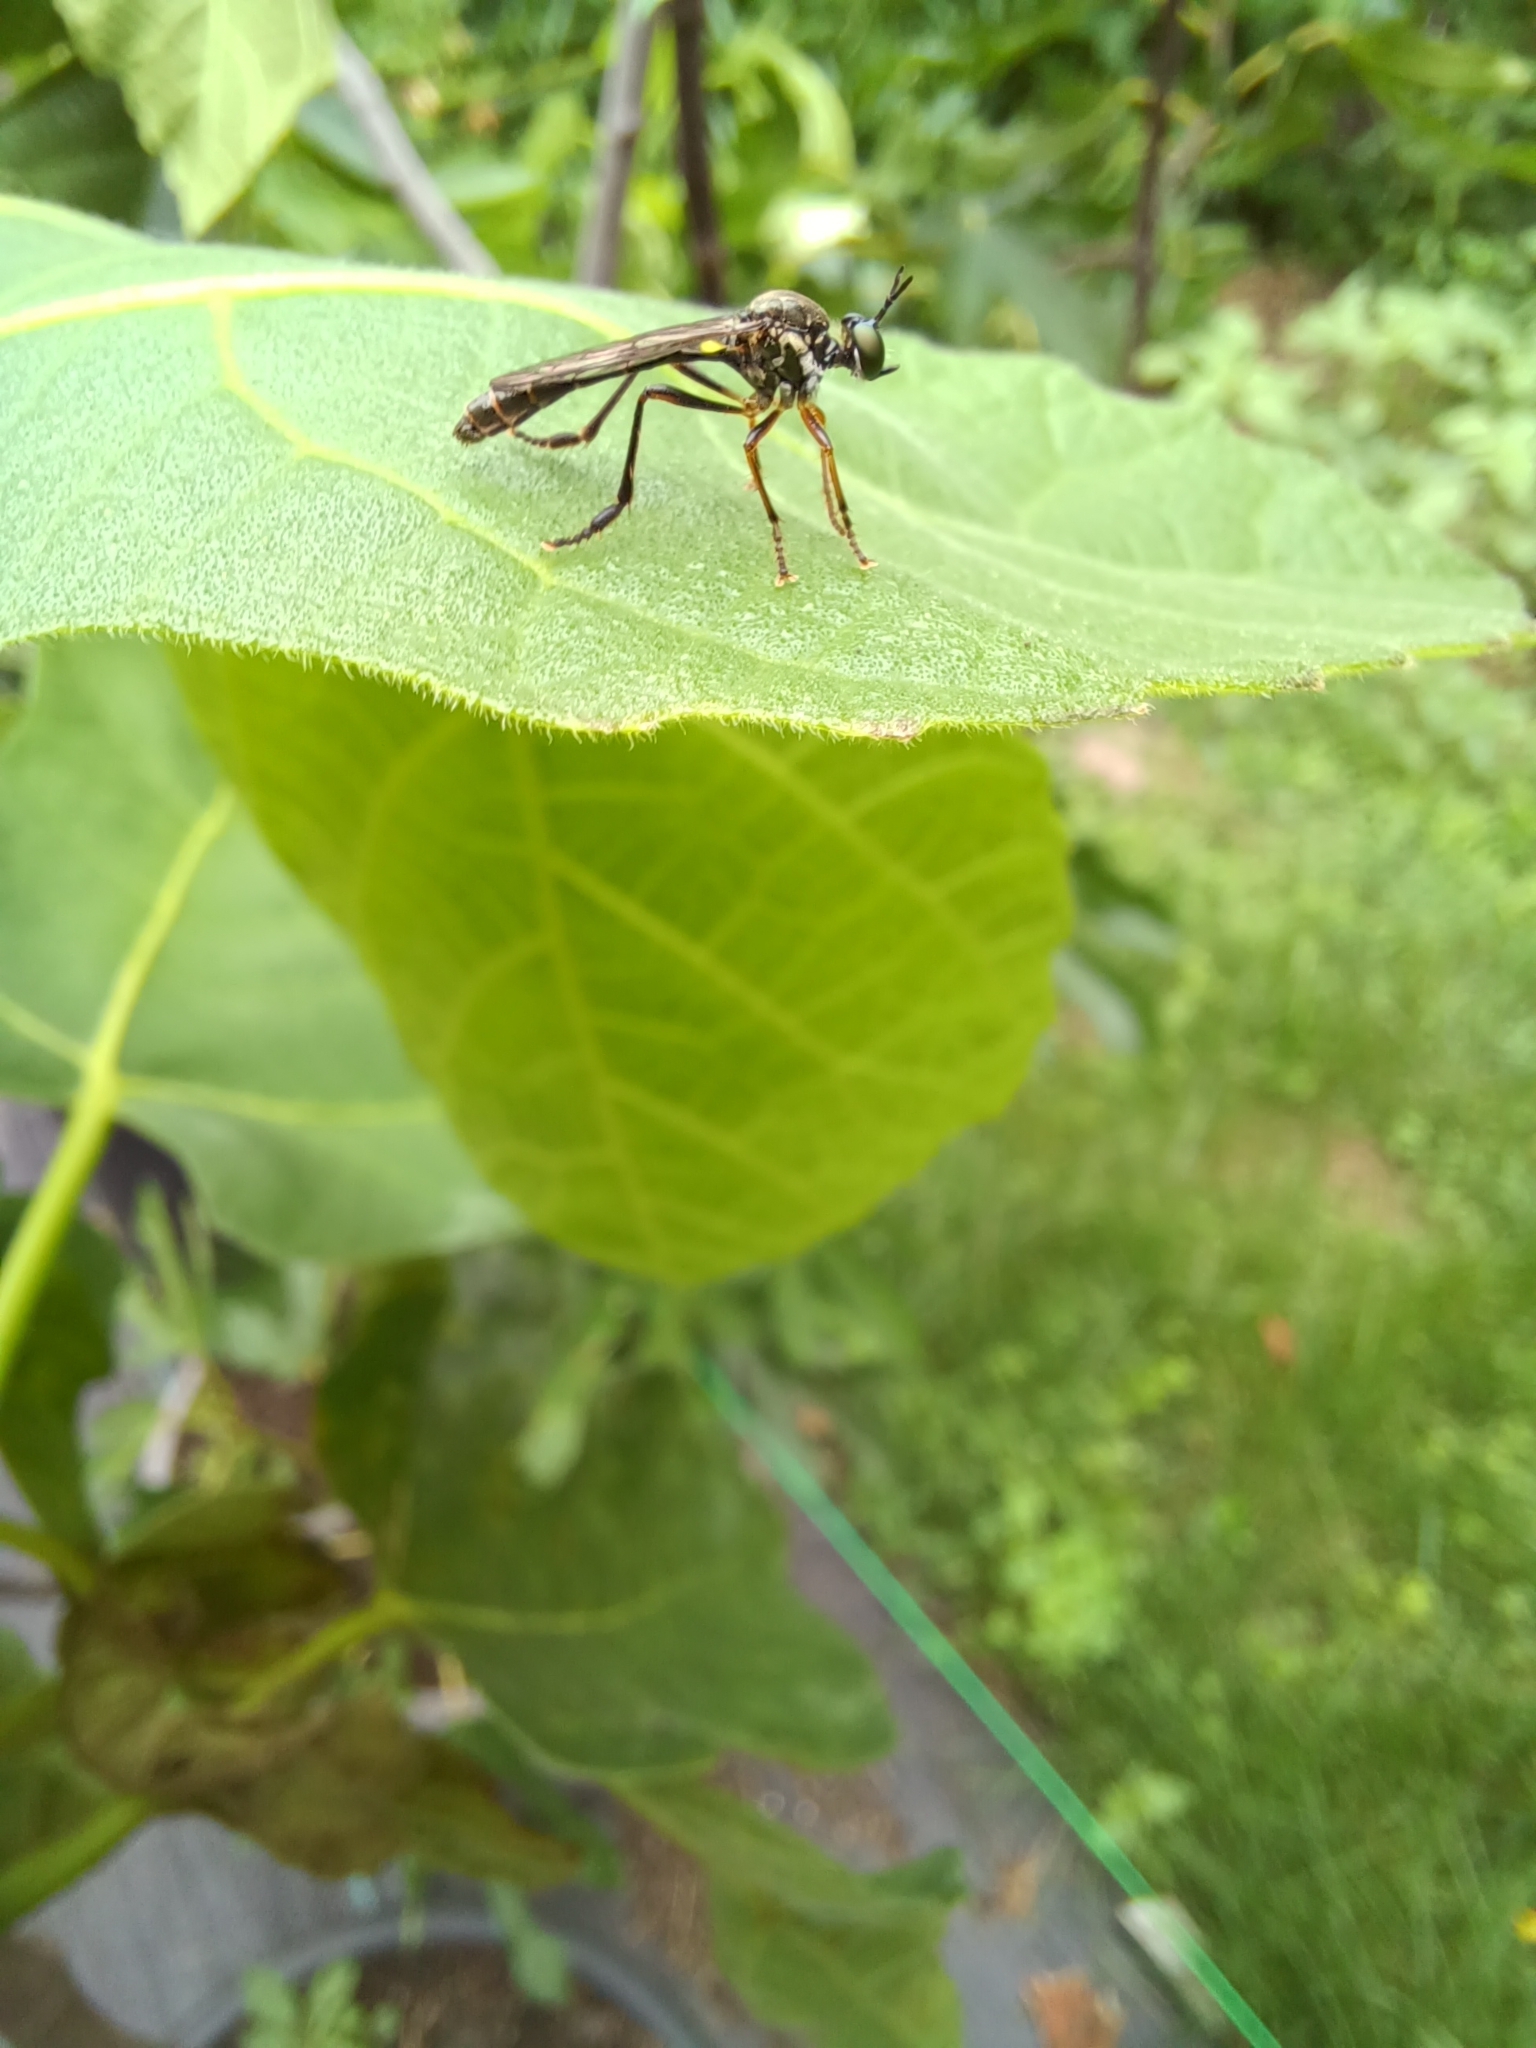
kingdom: Animalia
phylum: Arthropoda
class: Insecta
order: Diptera
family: Asilidae
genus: Dioctria
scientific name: Dioctria hyalipennis
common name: Stripe-legged robberfly
